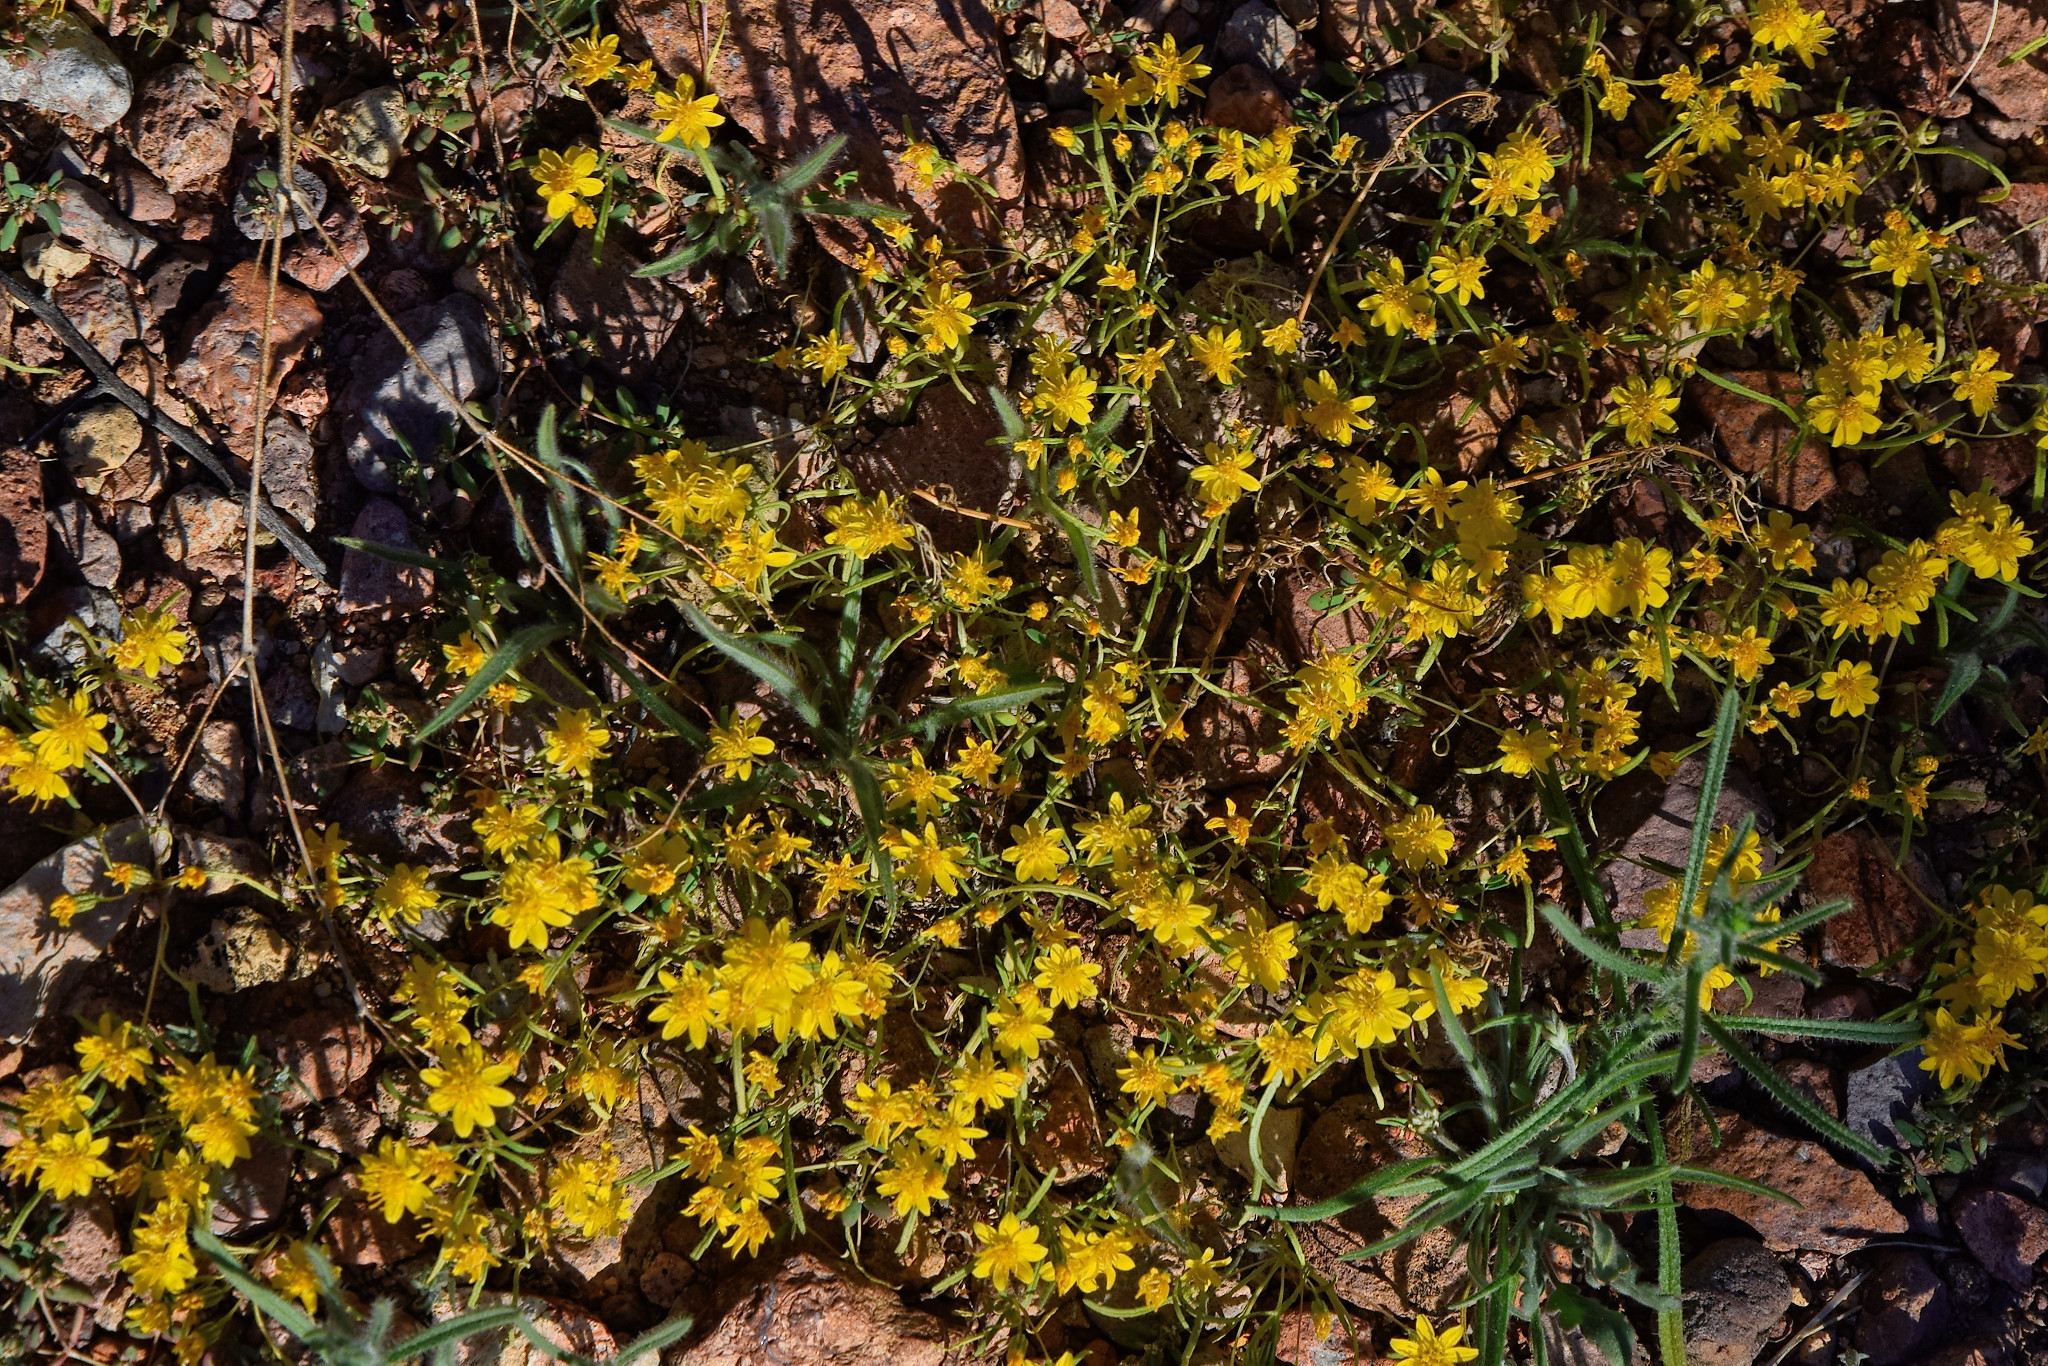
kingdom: Plantae
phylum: Tracheophyta
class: Magnoliopsida
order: Asterales
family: Asteraceae
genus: Pectis
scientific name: Pectis papposa
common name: Many-bristle chinchweed
